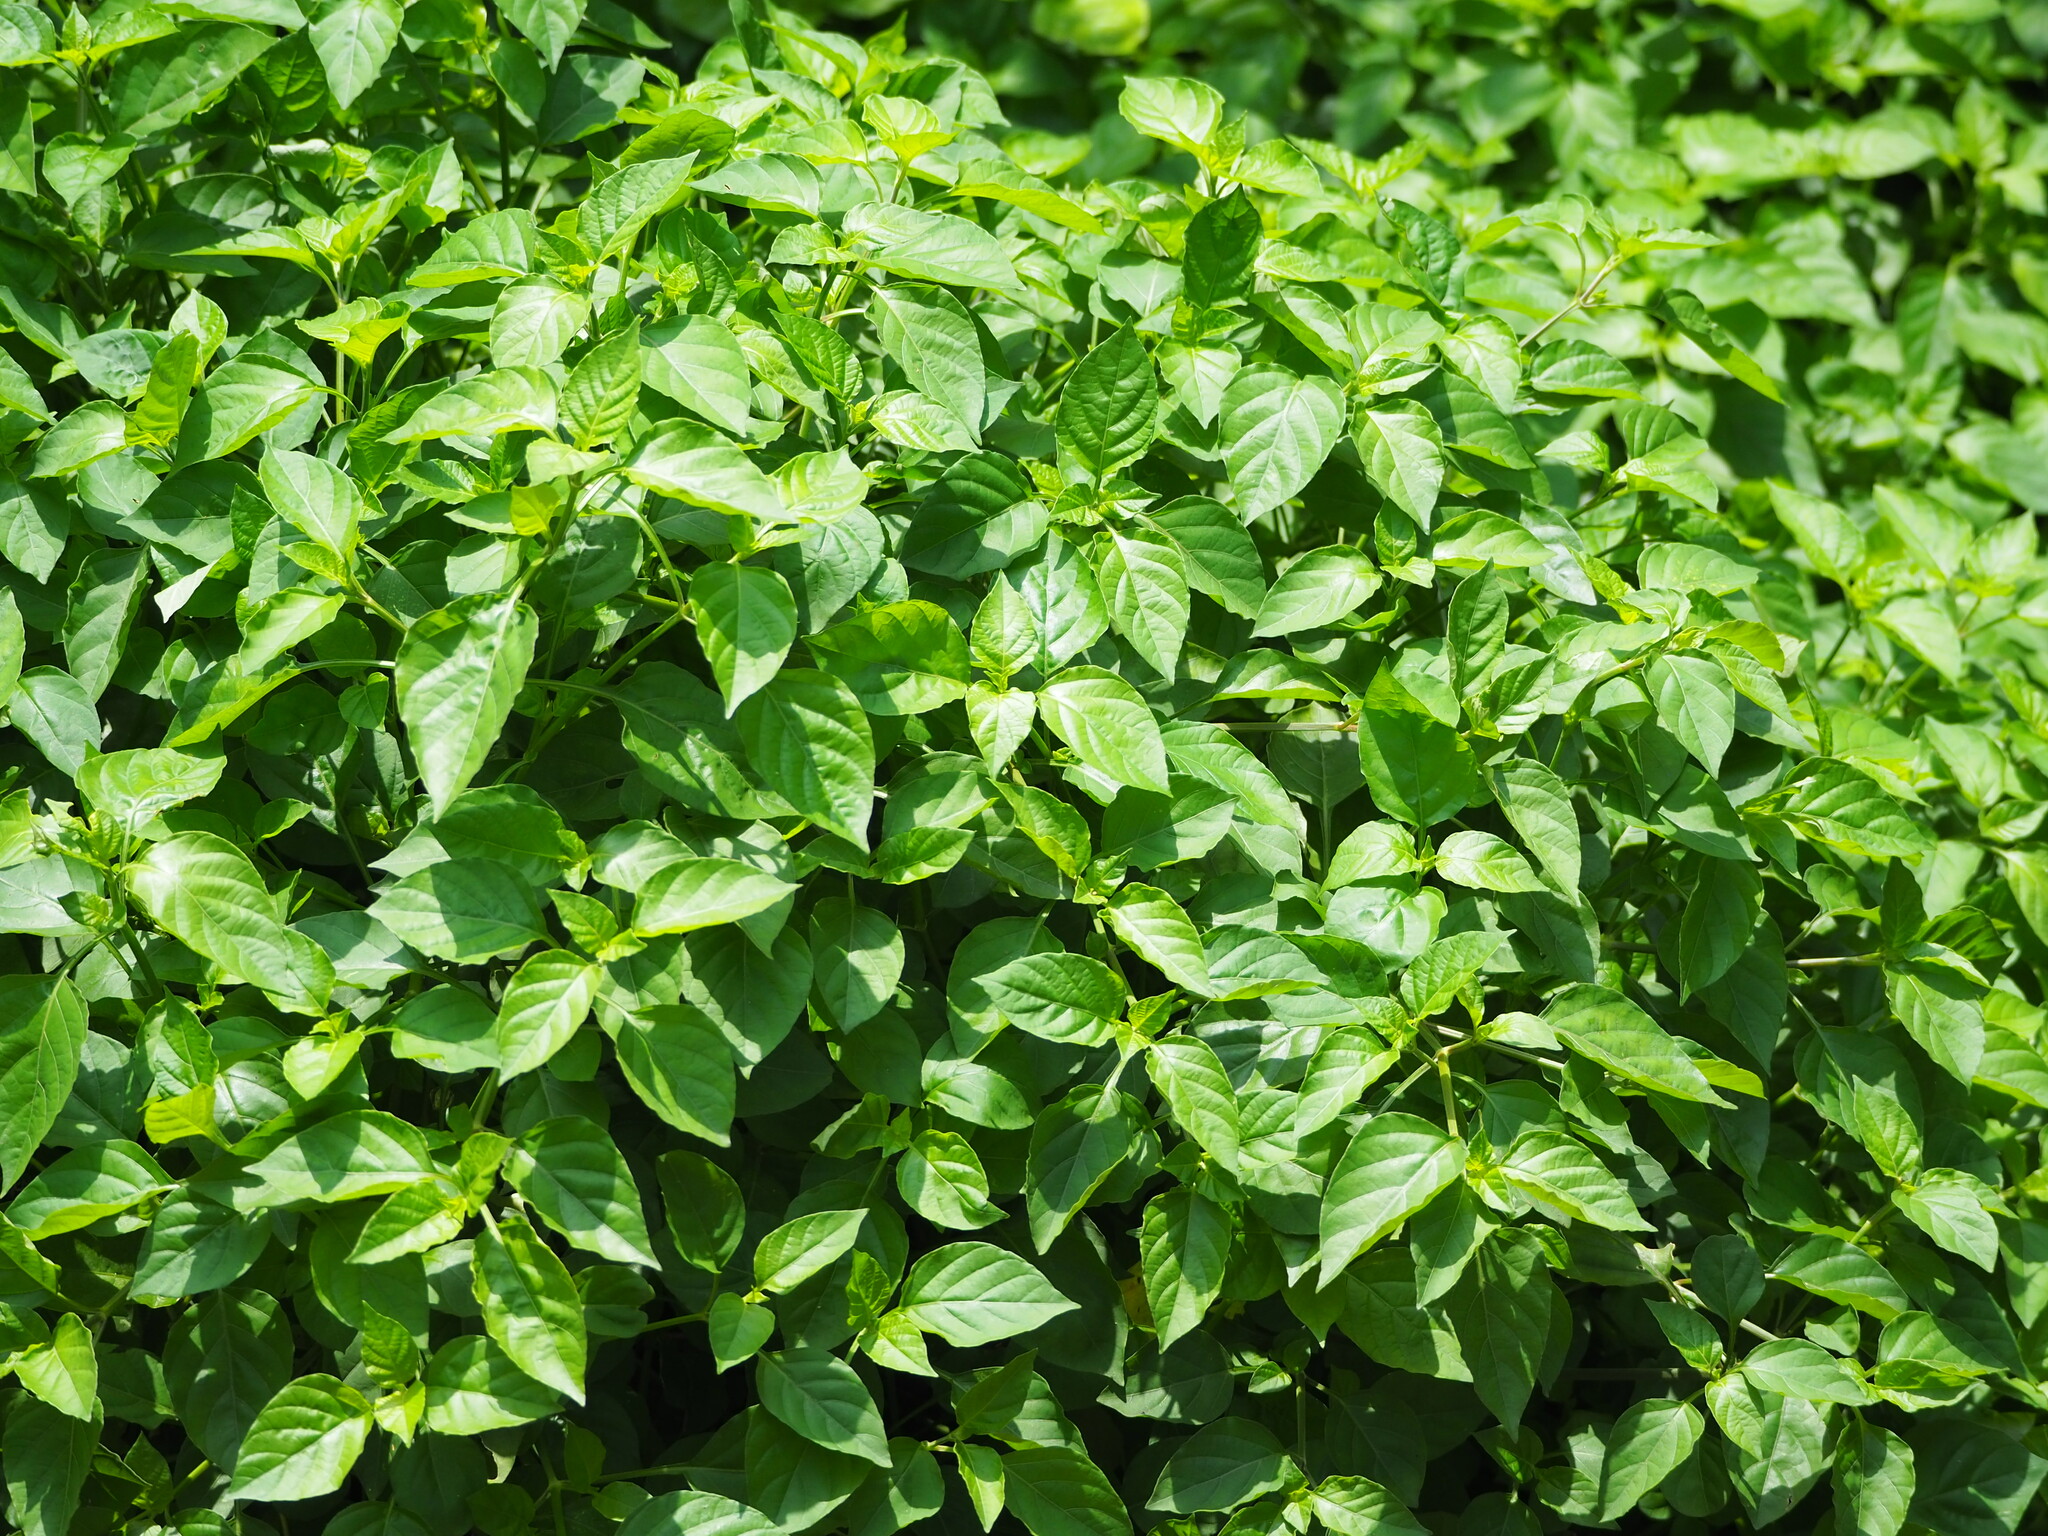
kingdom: Plantae
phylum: Tracheophyta
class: Magnoliopsida
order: Lamiales
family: Acanthaceae
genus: Asystasia
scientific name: Asystasia gangetica
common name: Chinese violet
